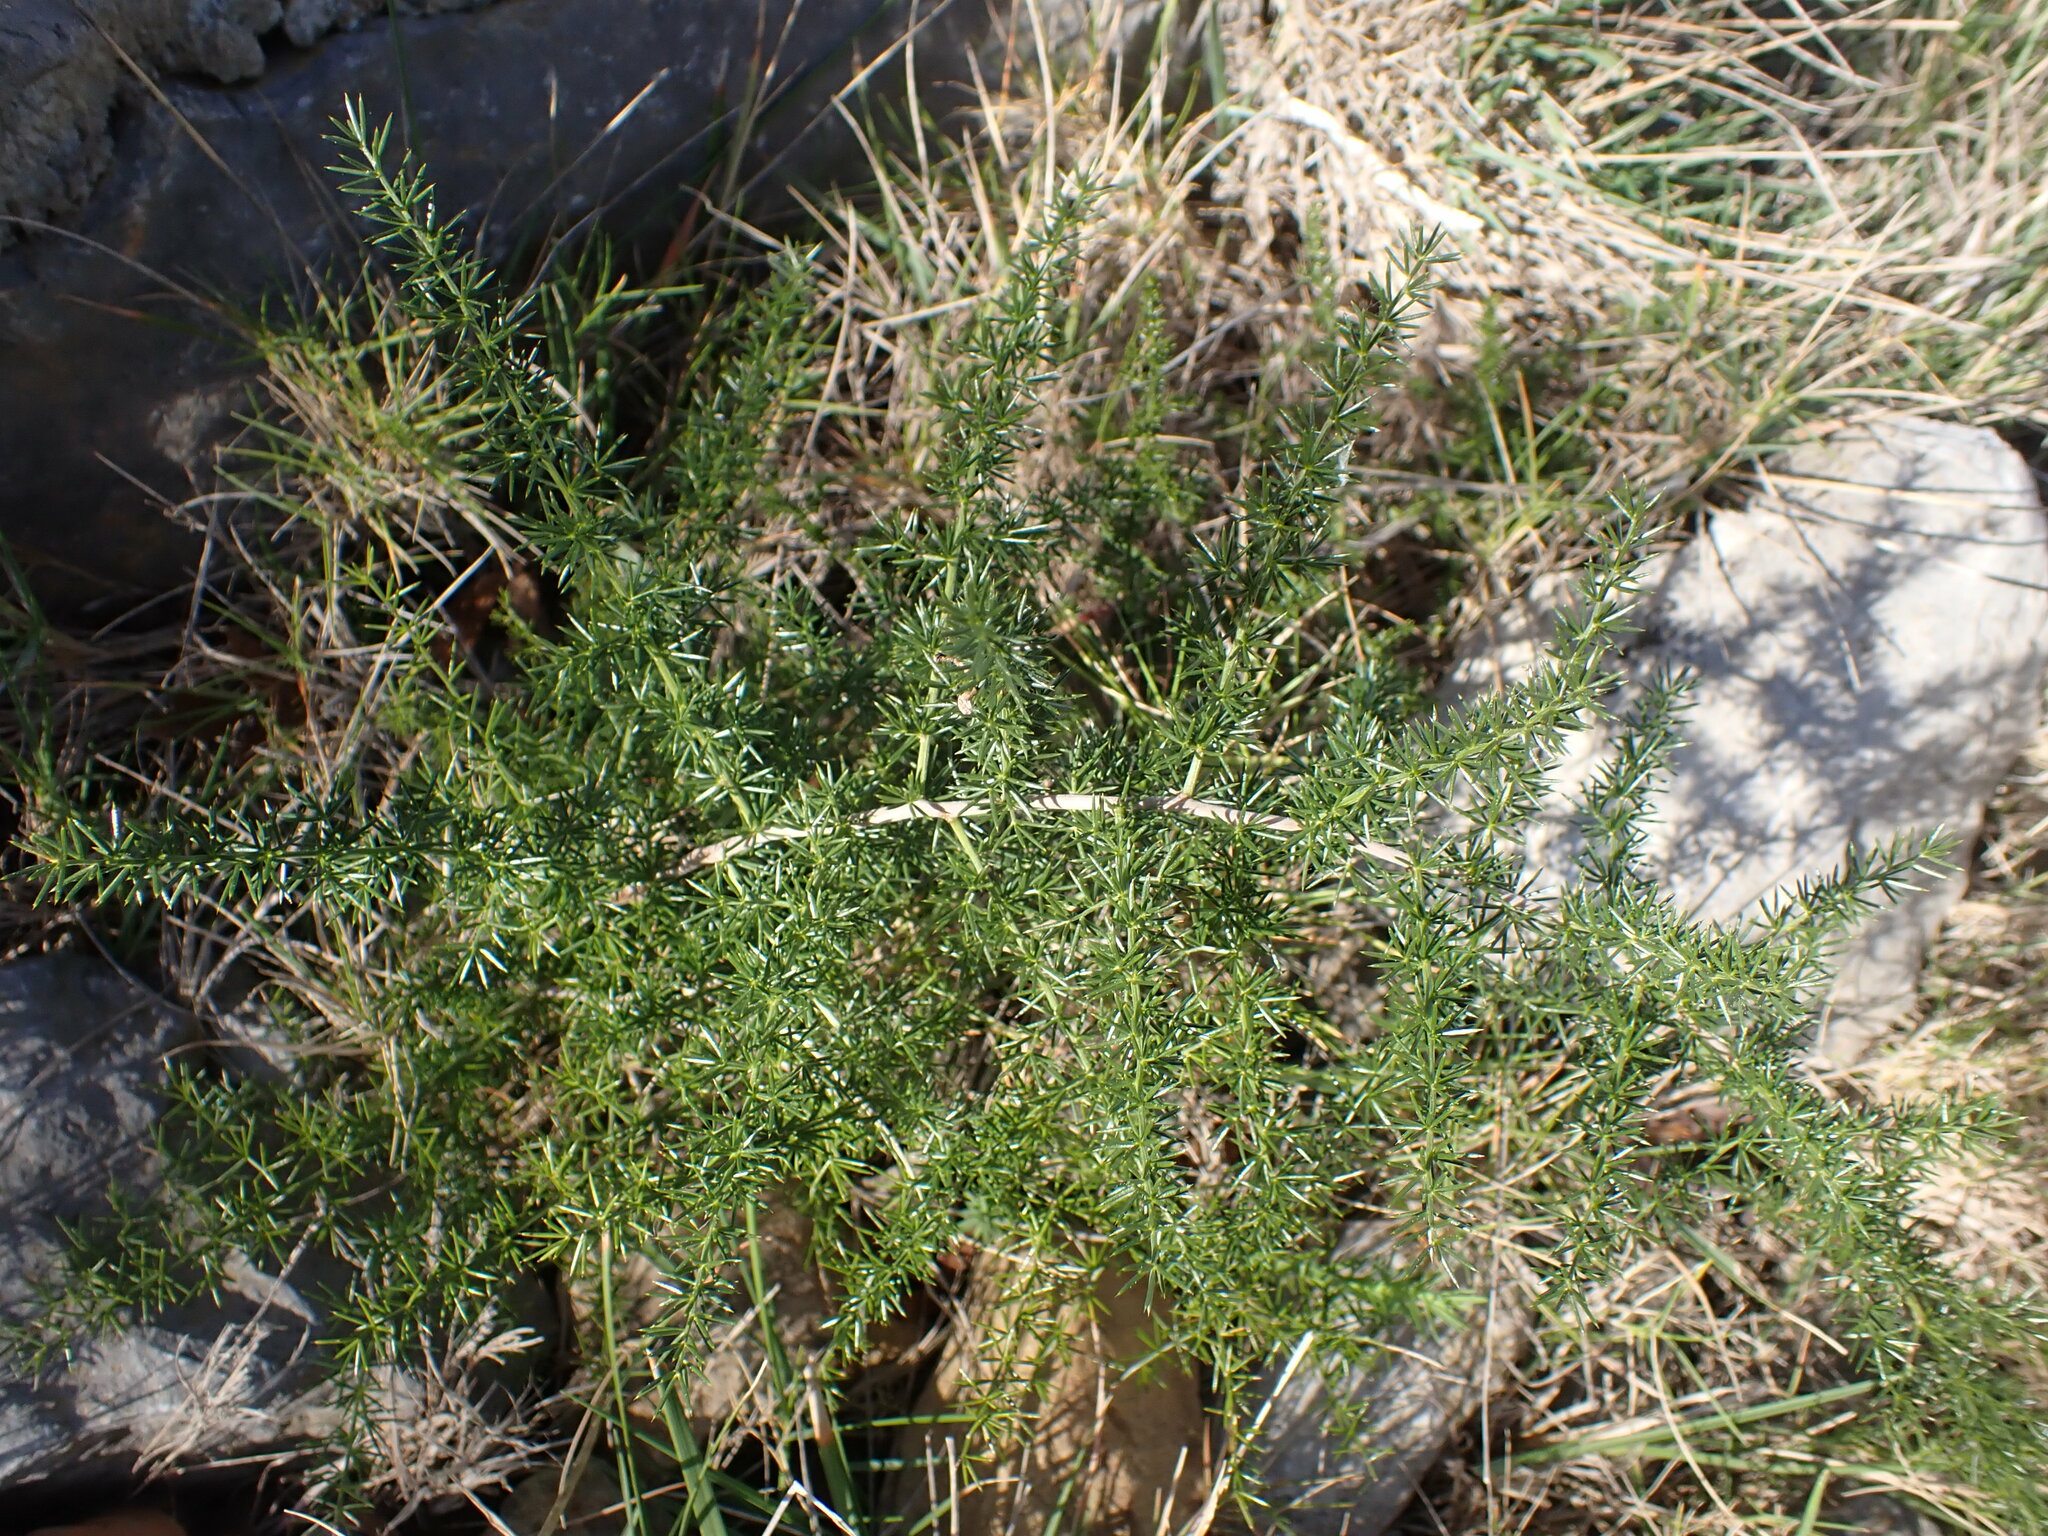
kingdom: Plantae
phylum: Tracheophyta
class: Liliopsida
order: Asparagales
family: Asparagaceae
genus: Asparagus
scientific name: Asparagus acutifolius
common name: Wild asparagus
